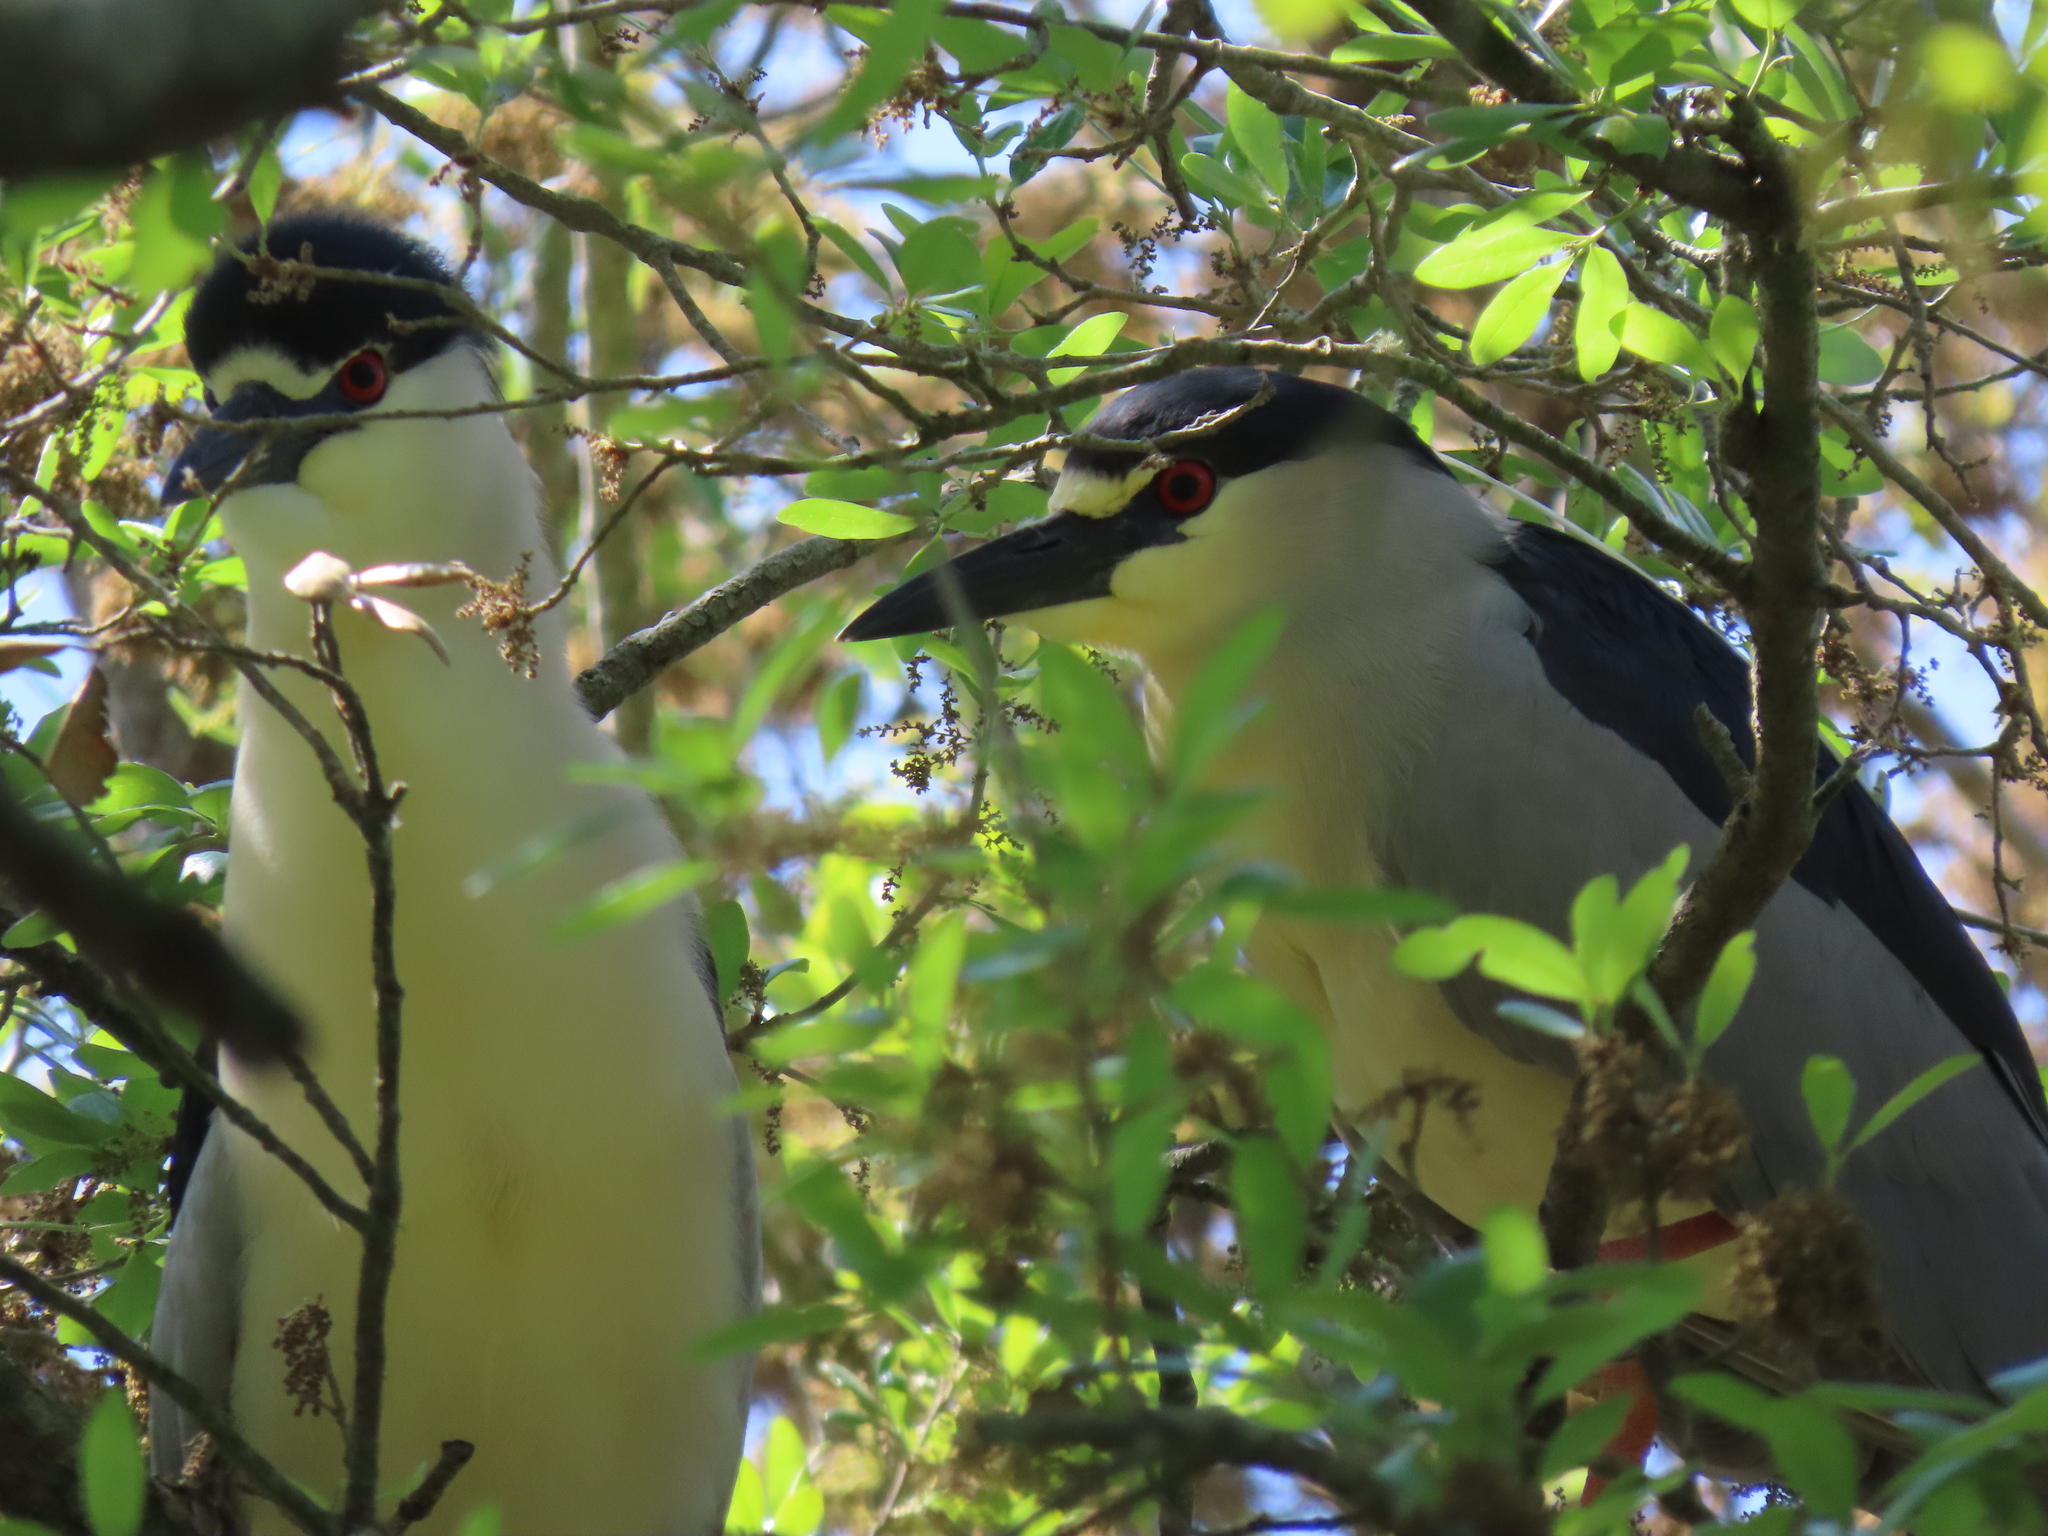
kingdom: Animalia
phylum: Chordata
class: Aves
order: Pelecaniformes
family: Ardeidae
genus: Nycticorax
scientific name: Nycticorax nycticorax
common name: Black-crowned night heron
